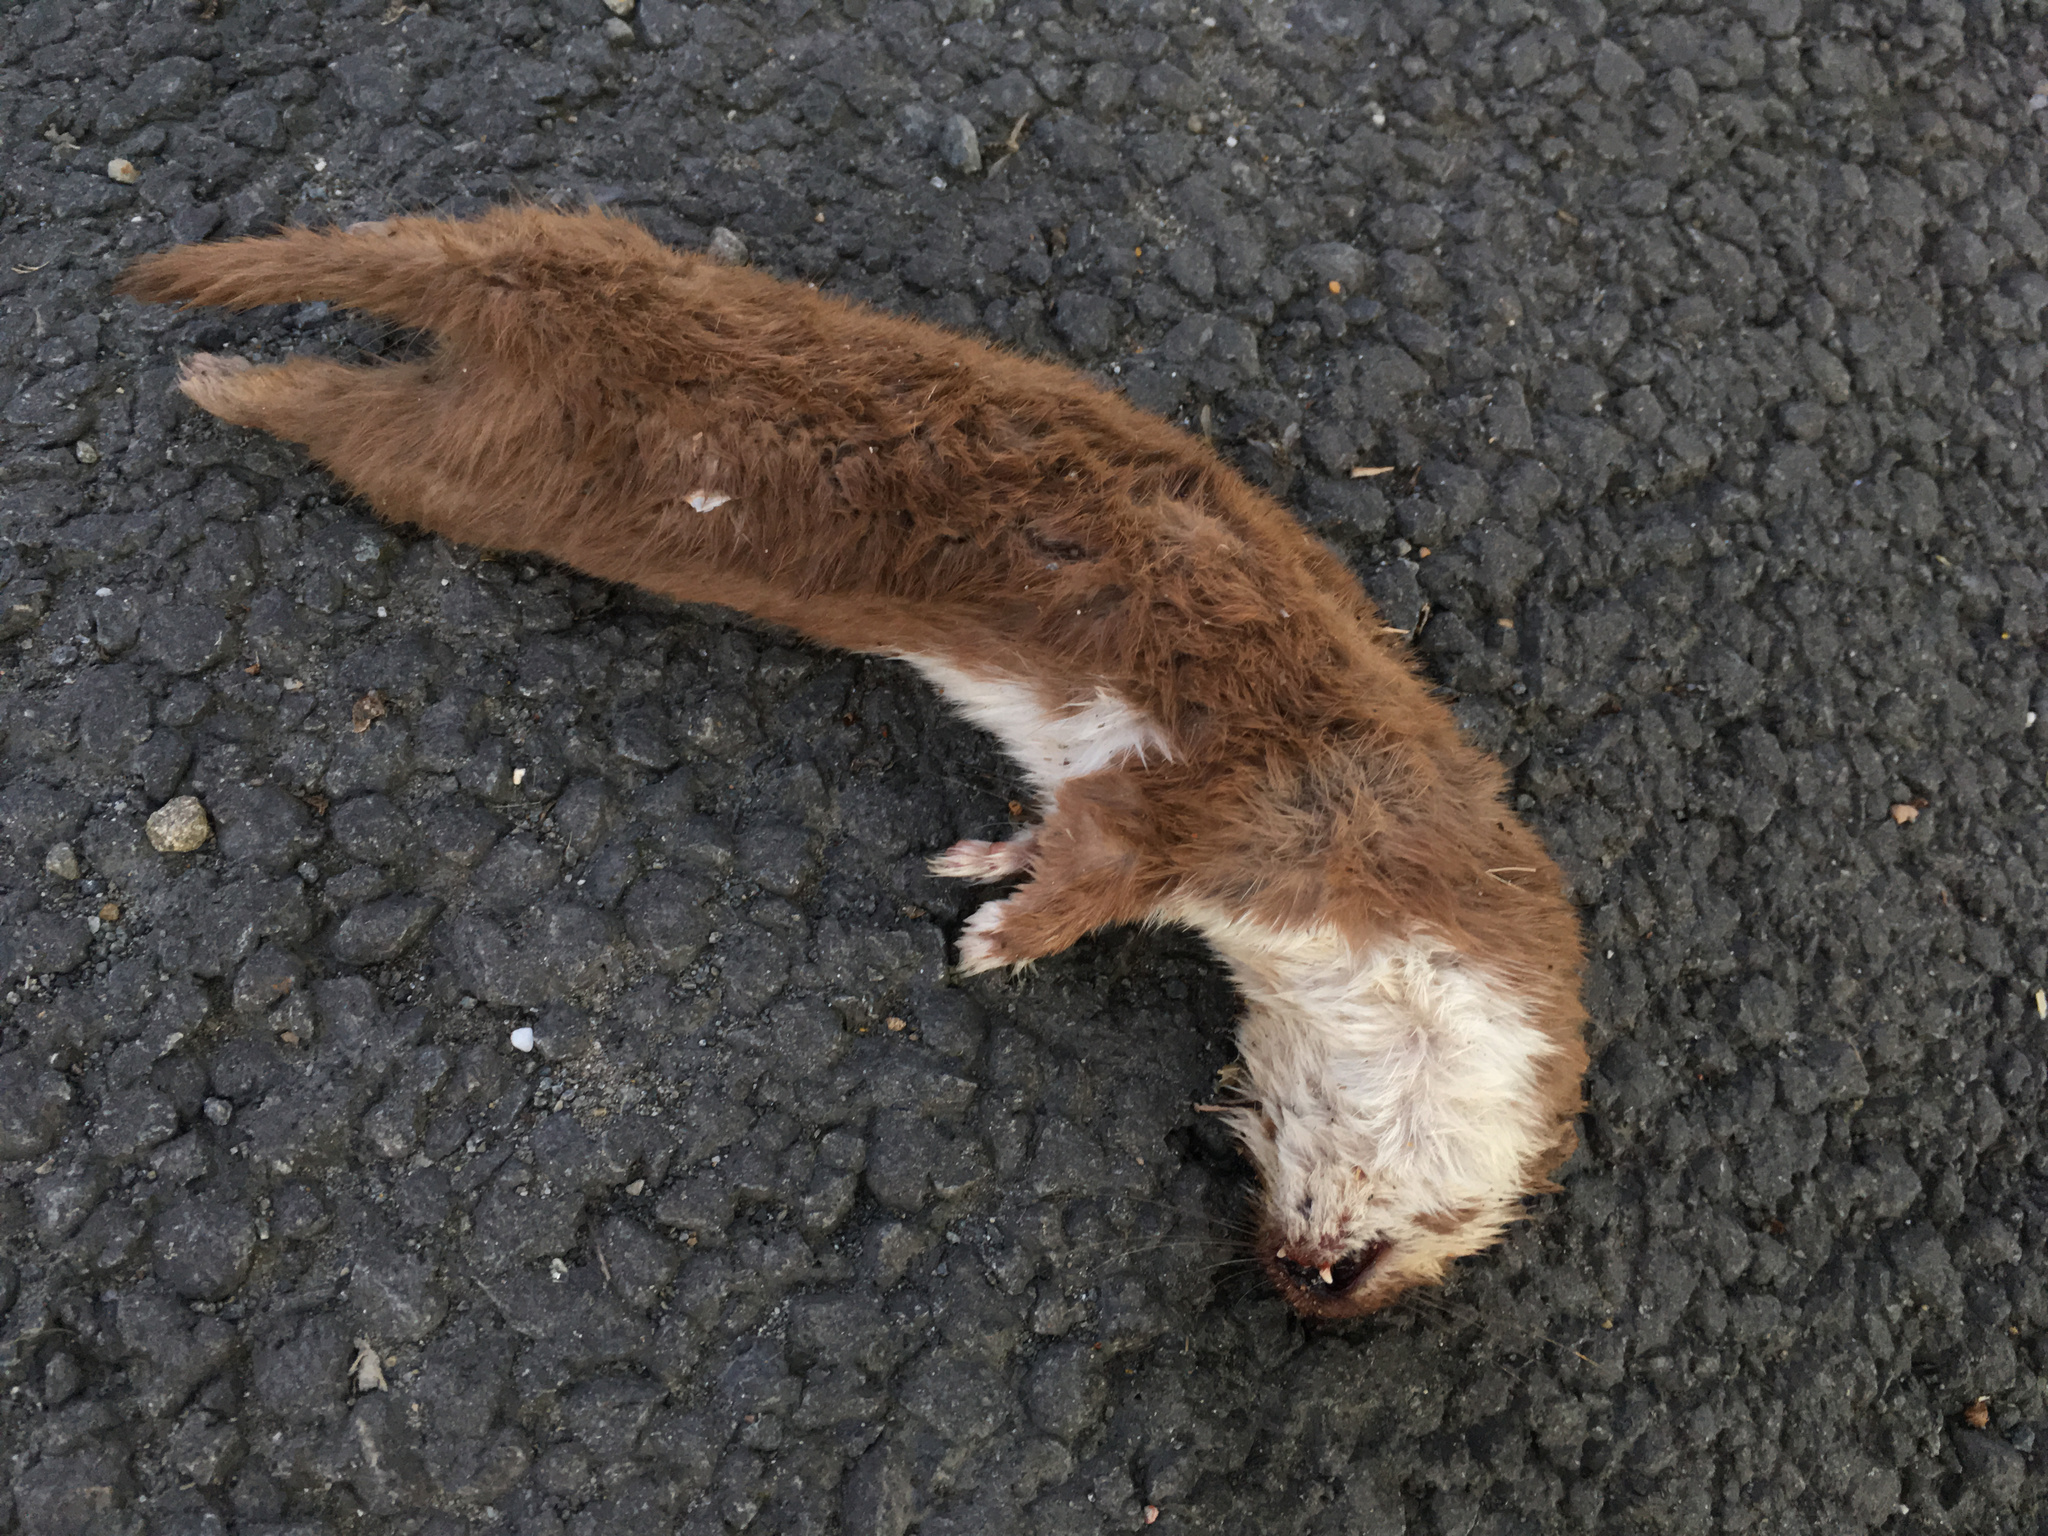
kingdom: Animalia
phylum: Chordata
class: Mammalia
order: Carnivora
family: Mustelidae
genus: Mustela
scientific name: Mustela nivalis
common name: Least weasel
